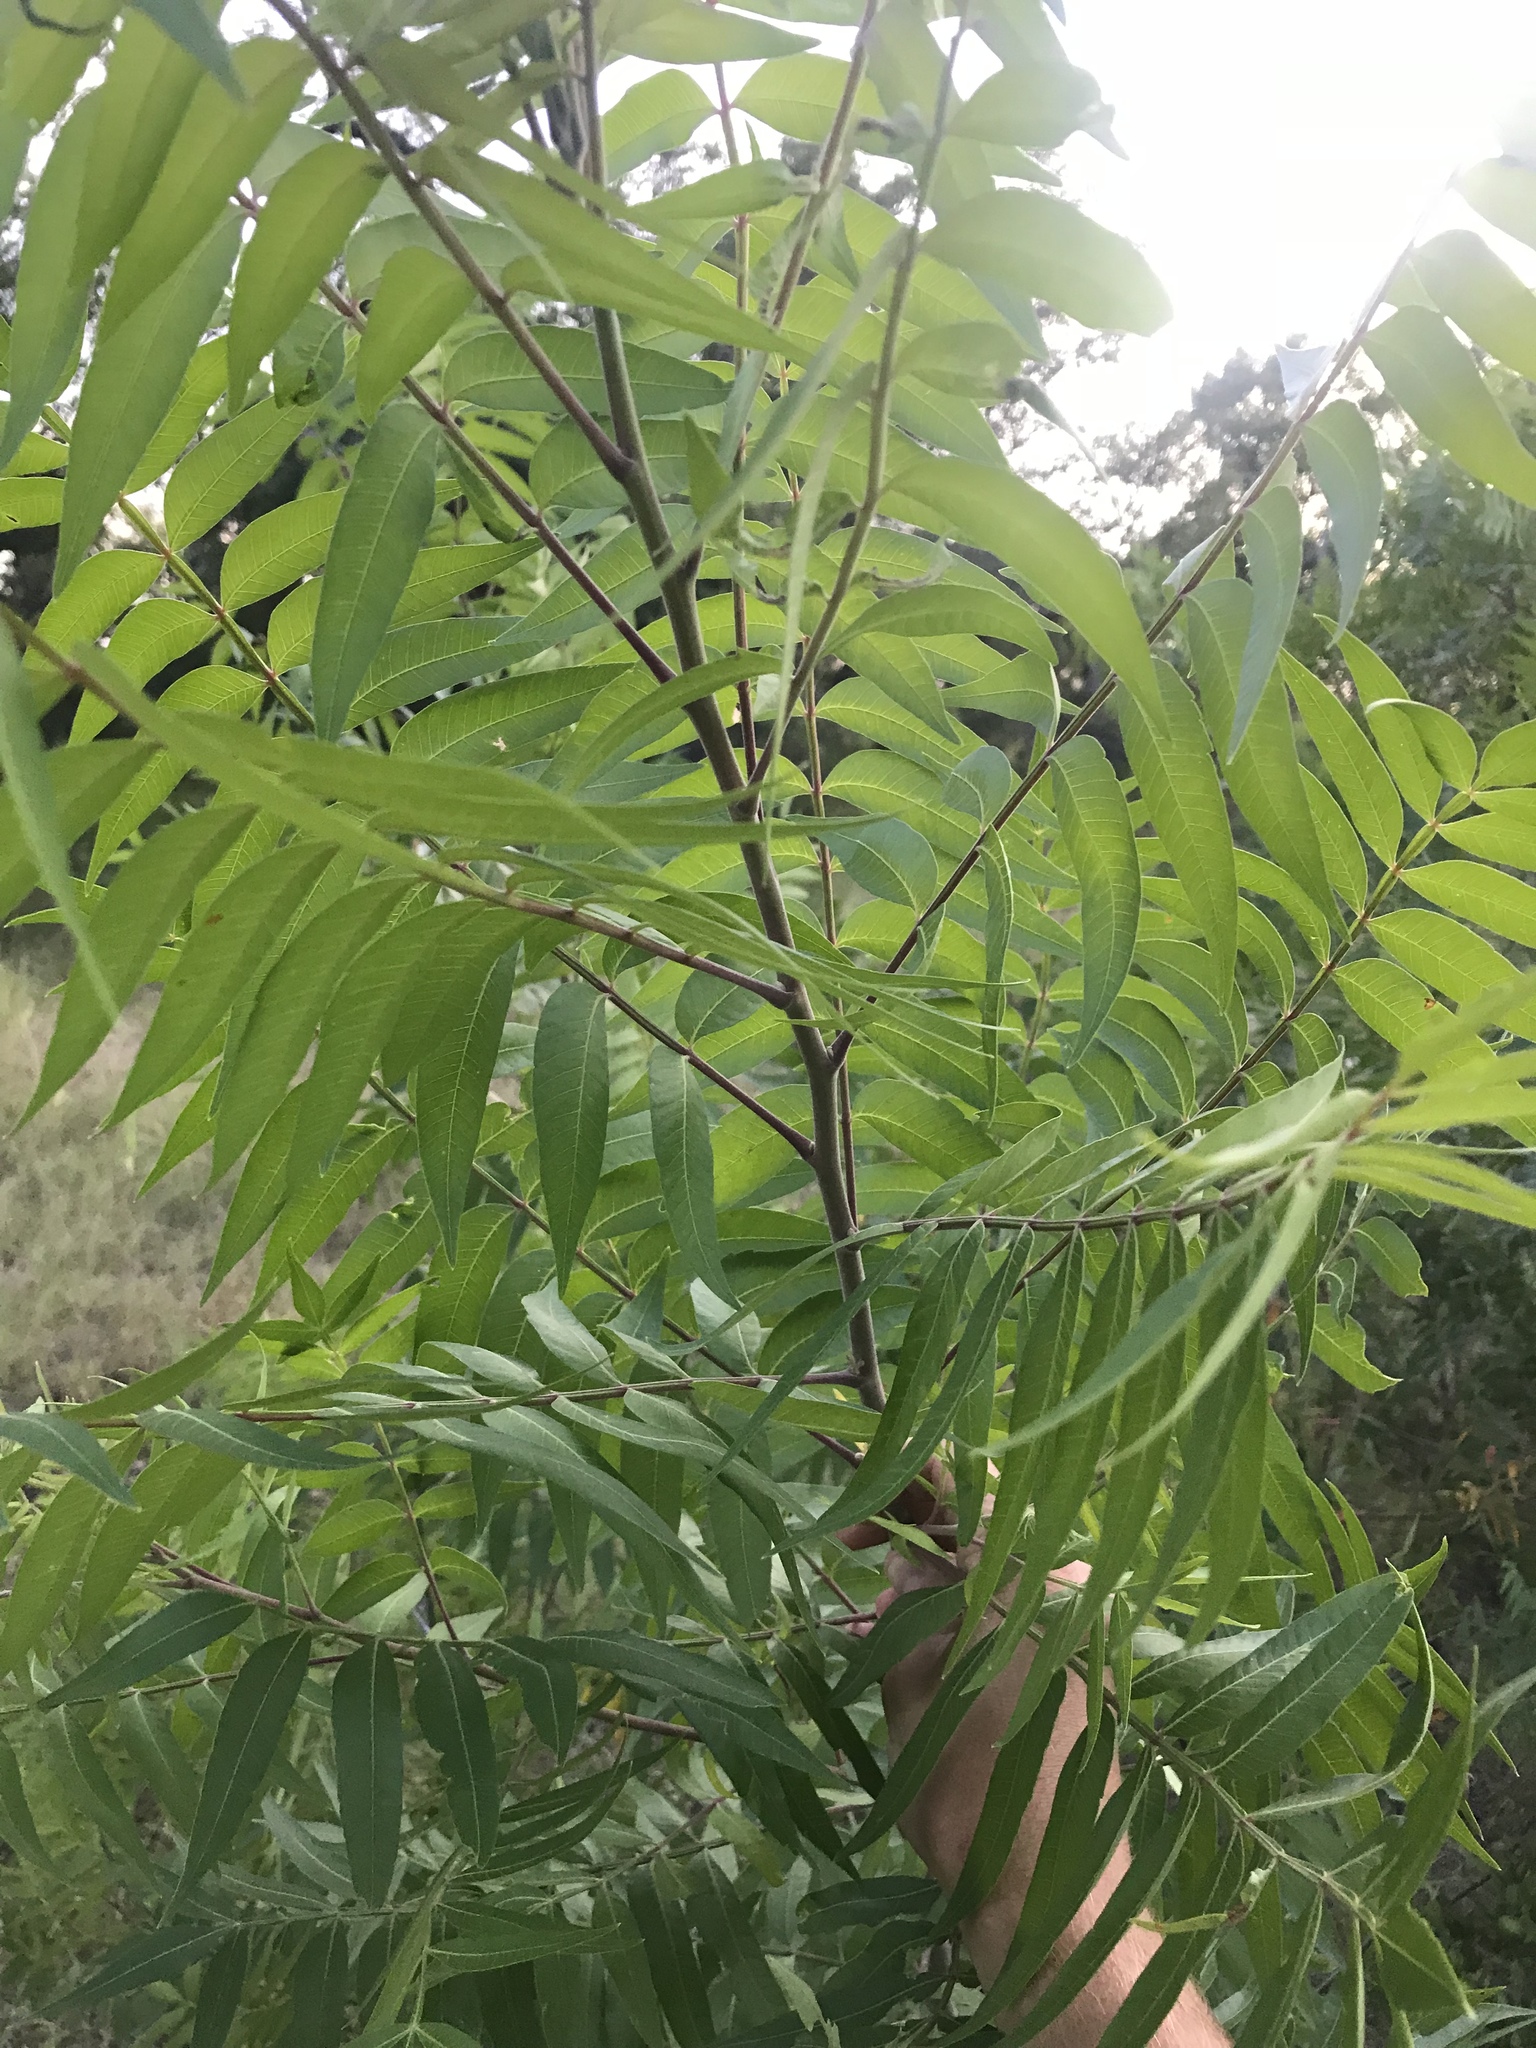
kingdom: Plantae
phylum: Tracheophyta
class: Magnoliopsida
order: Sapindales
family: Anacardiaceae
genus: Rhus
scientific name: Rhus lanceolata
